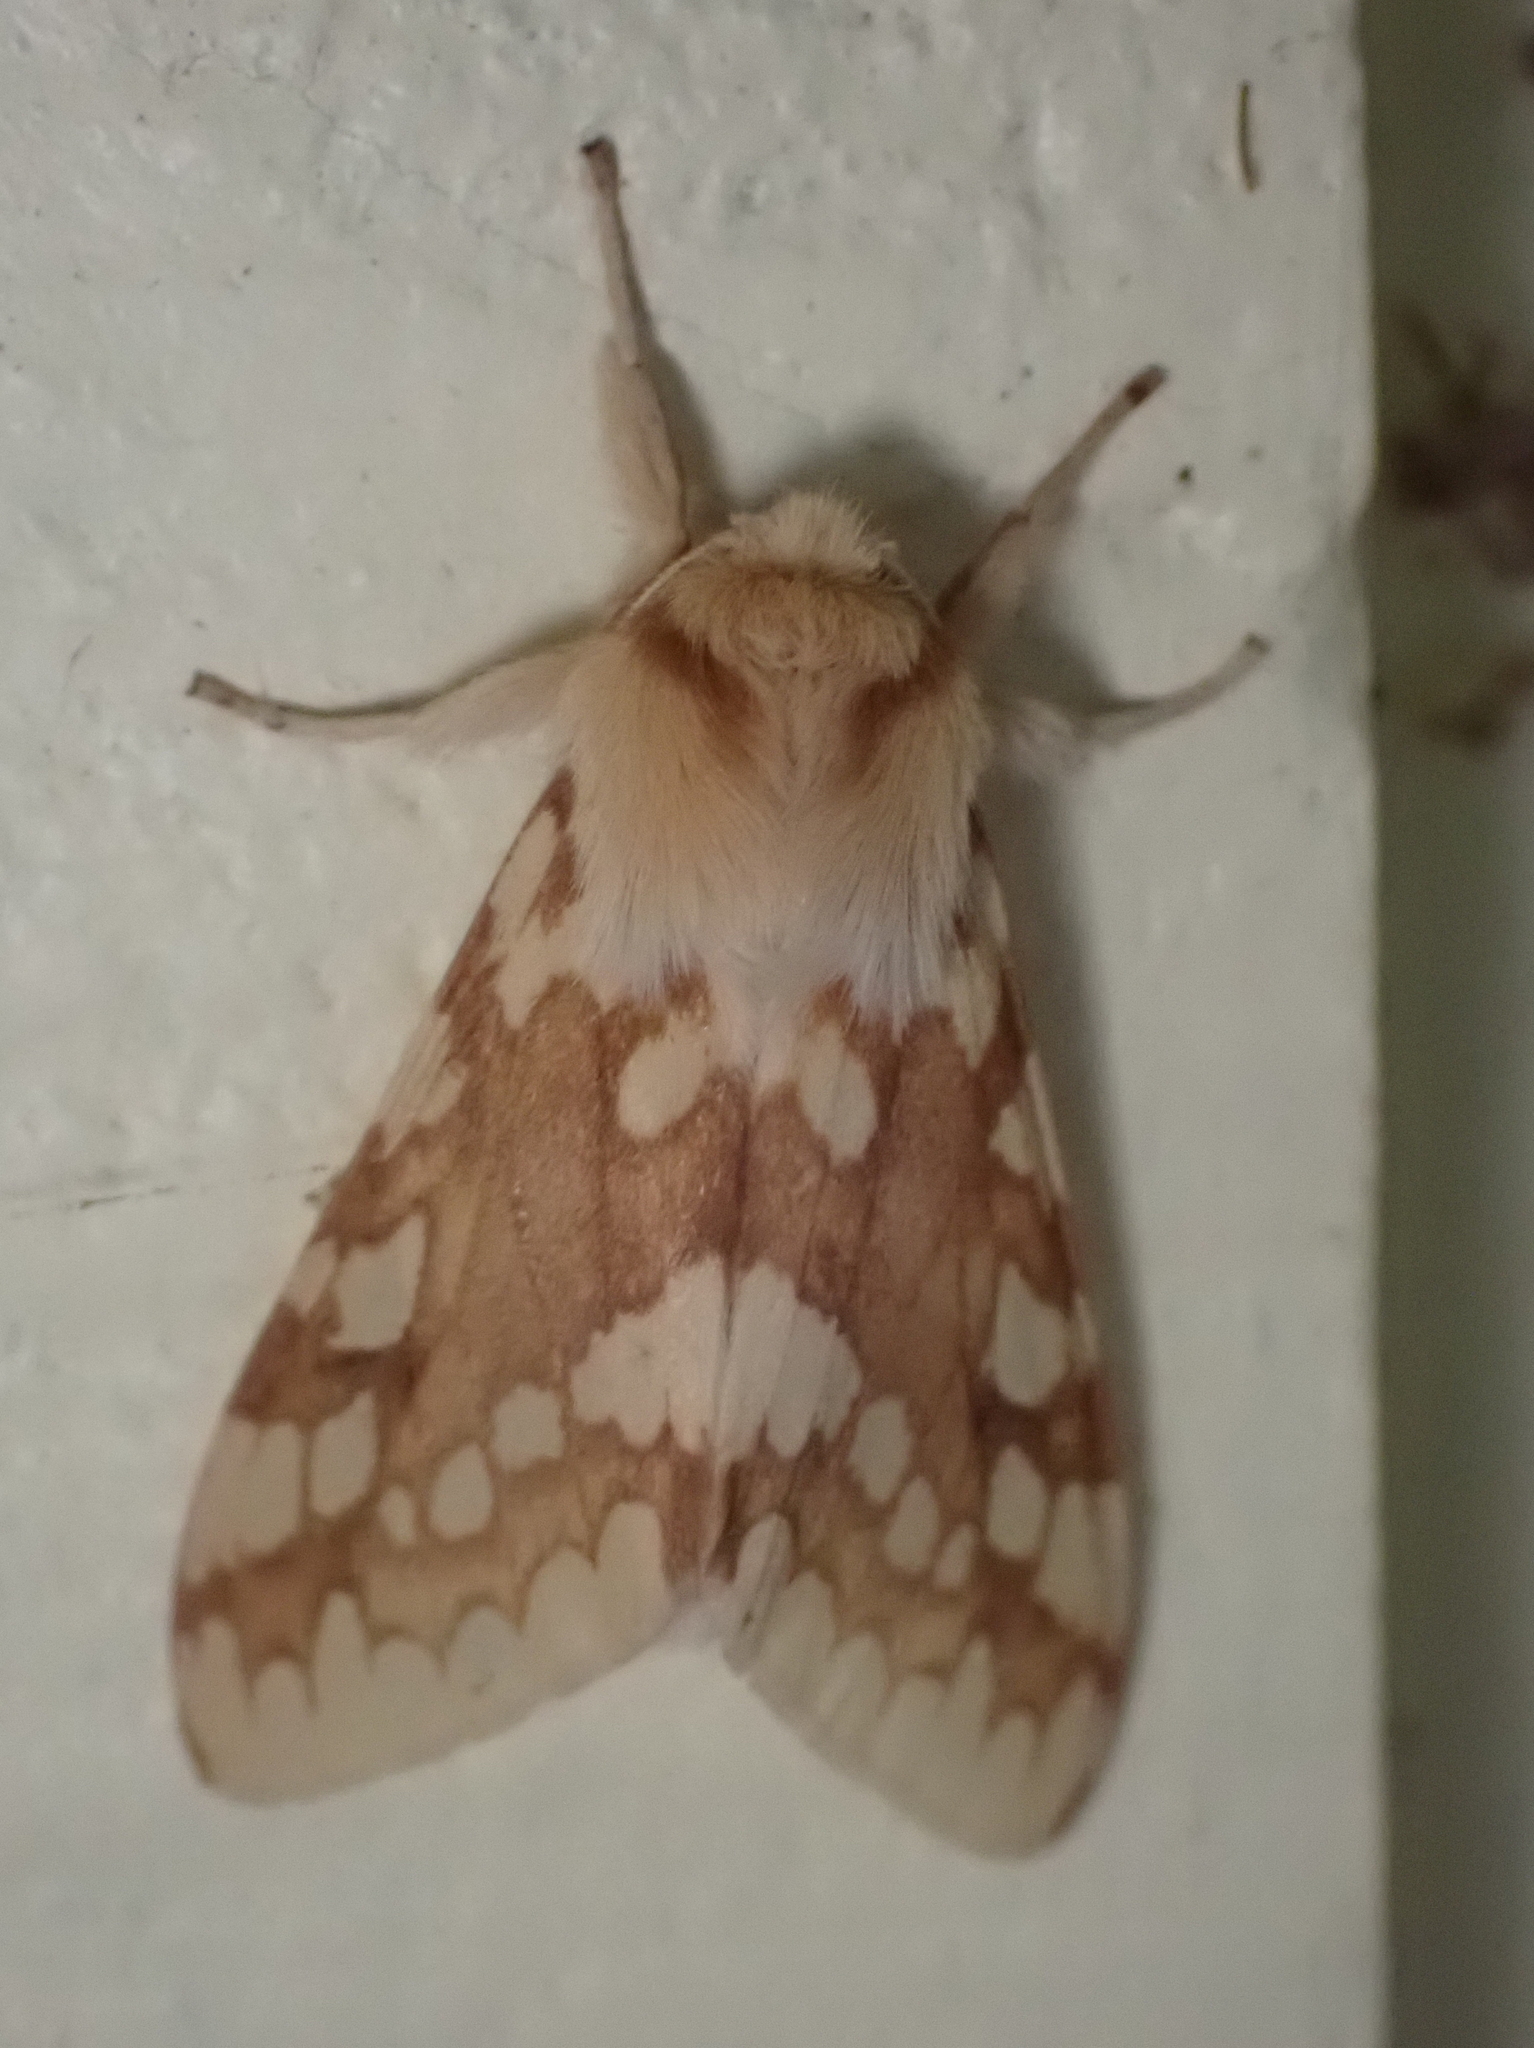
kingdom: Animalia
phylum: Arthropoda
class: Insecta
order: Lepidoptera
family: Erebidae
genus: Lophocampa
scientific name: Lophocampa maculata
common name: Spotted tussock moth
